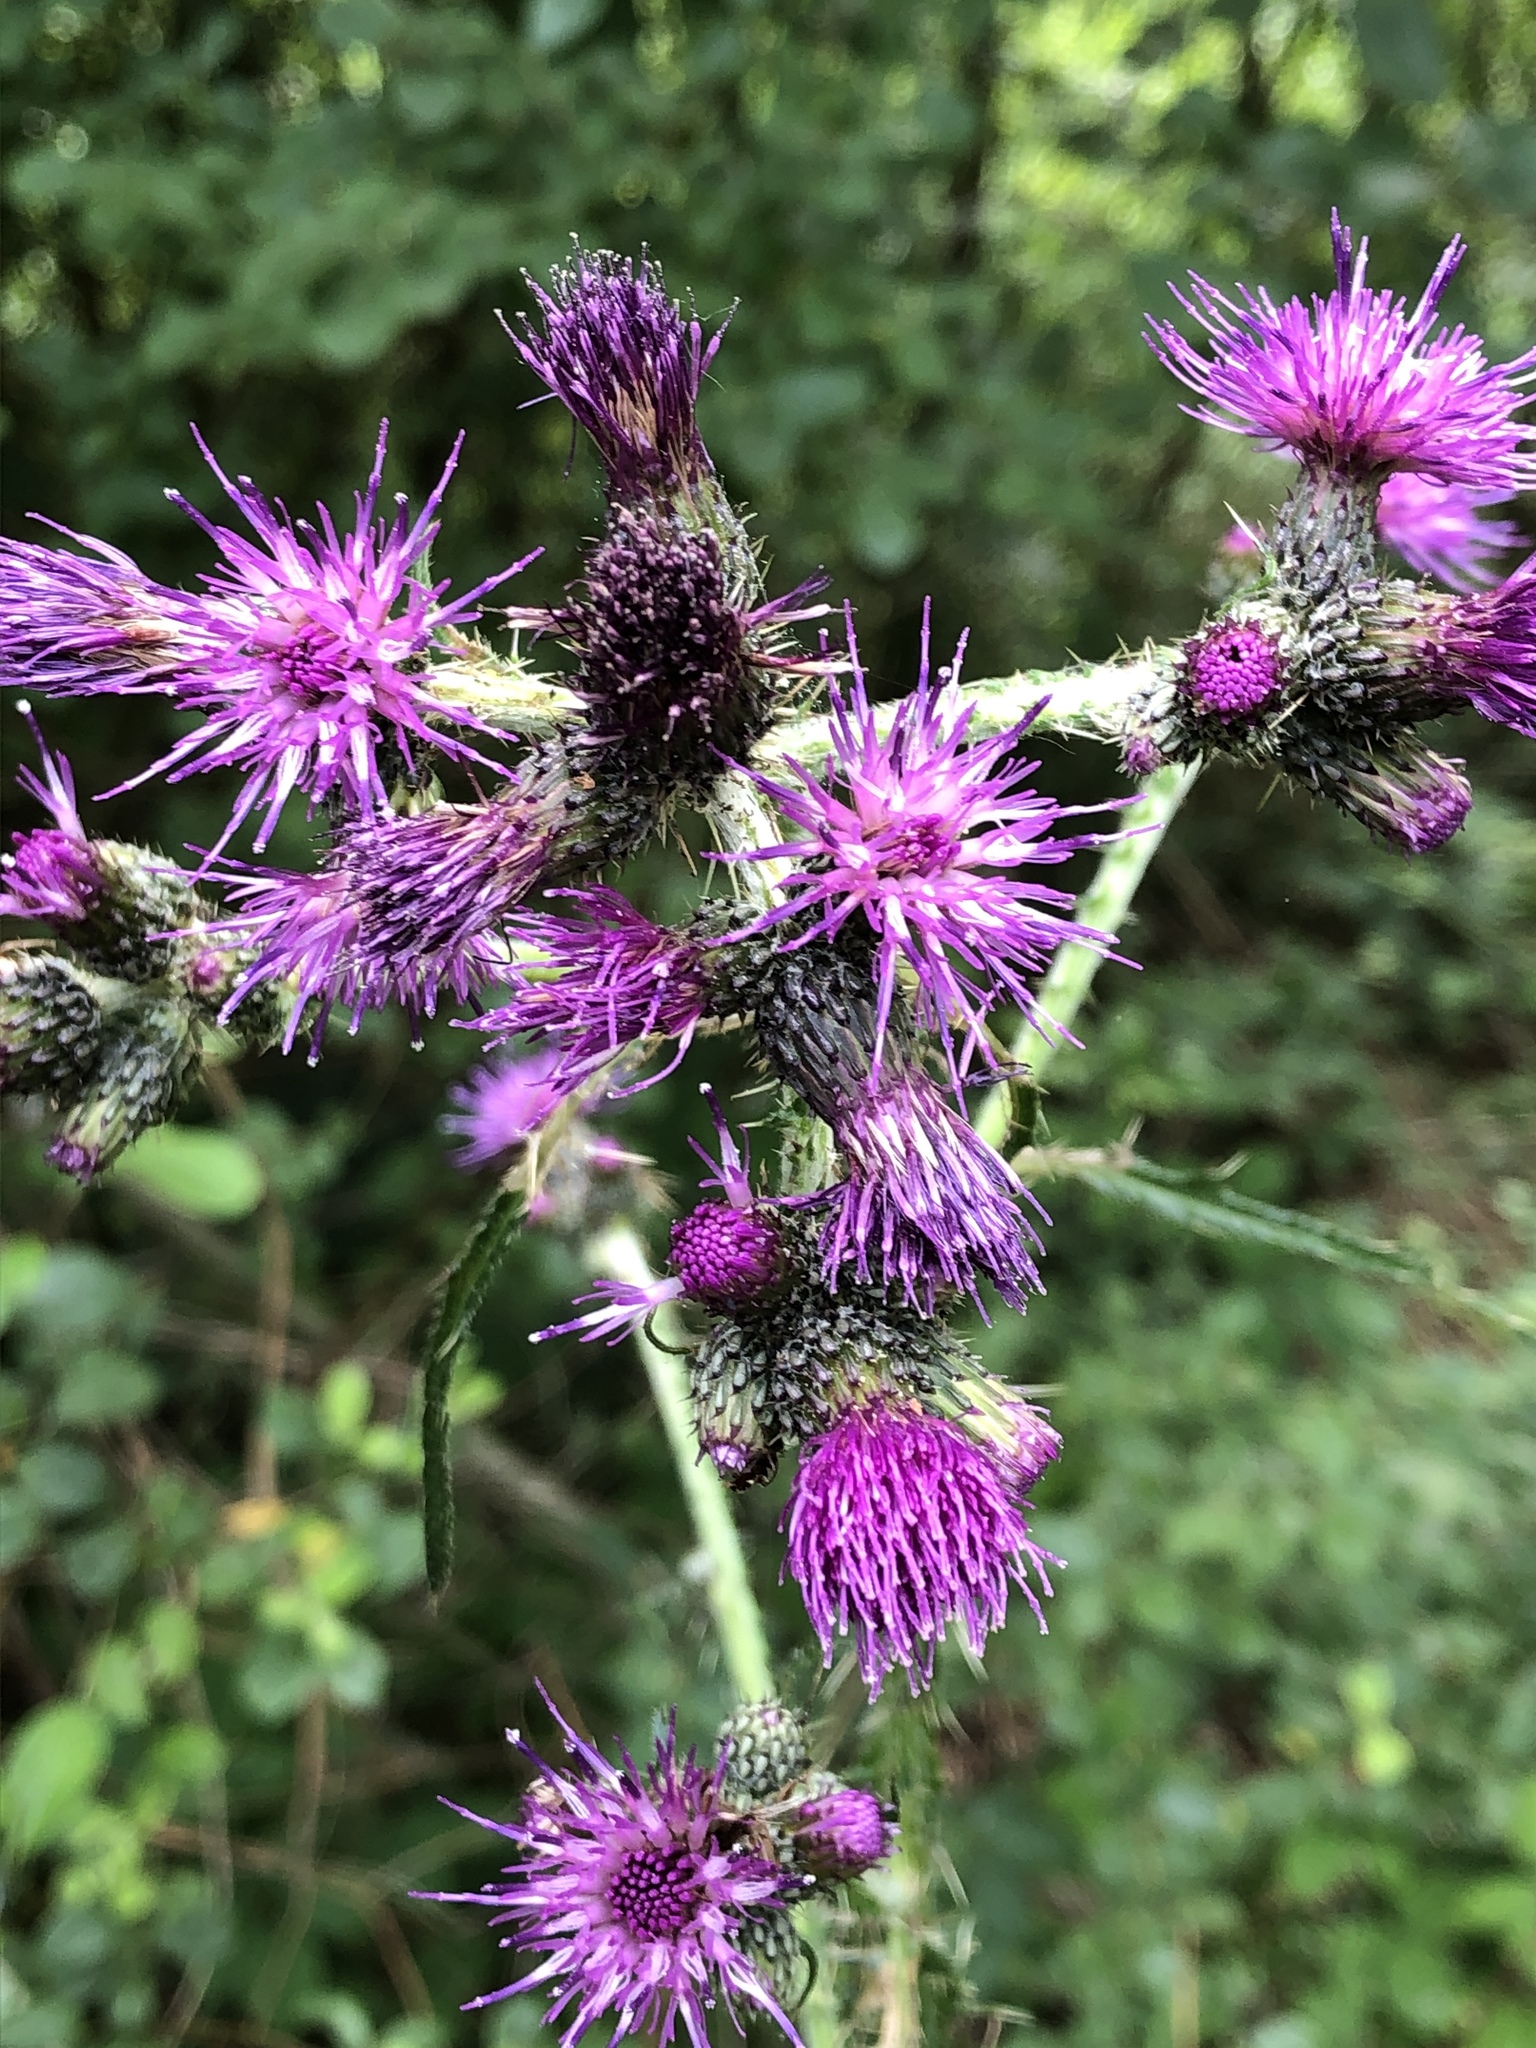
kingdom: Plantae
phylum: Tracheophyta
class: Magnoliopsida
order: Asterales
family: Asteraceae
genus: Cirsium
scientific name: Cirsium palustre
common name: Marsh thistle
